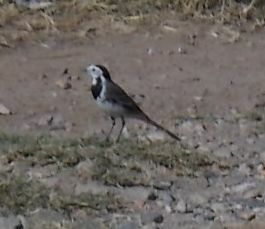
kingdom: Animalia
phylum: Chordata
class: Aves
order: Passeriformes
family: Motacillidae
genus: Motacilla
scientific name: Motacilla alba
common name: White wagtail
